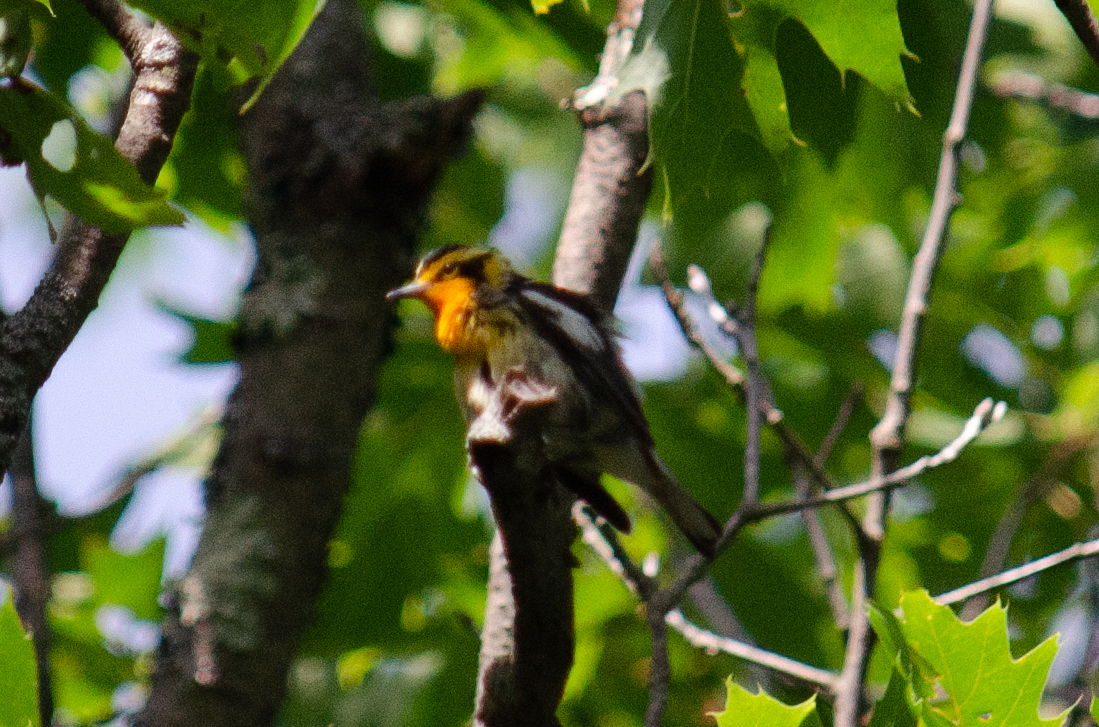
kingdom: Animalia
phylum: Chordata
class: Aves
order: Passeriformes
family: Parulidae
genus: Setophaga
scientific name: Setophaga fusca
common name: Blackburnian warbler
